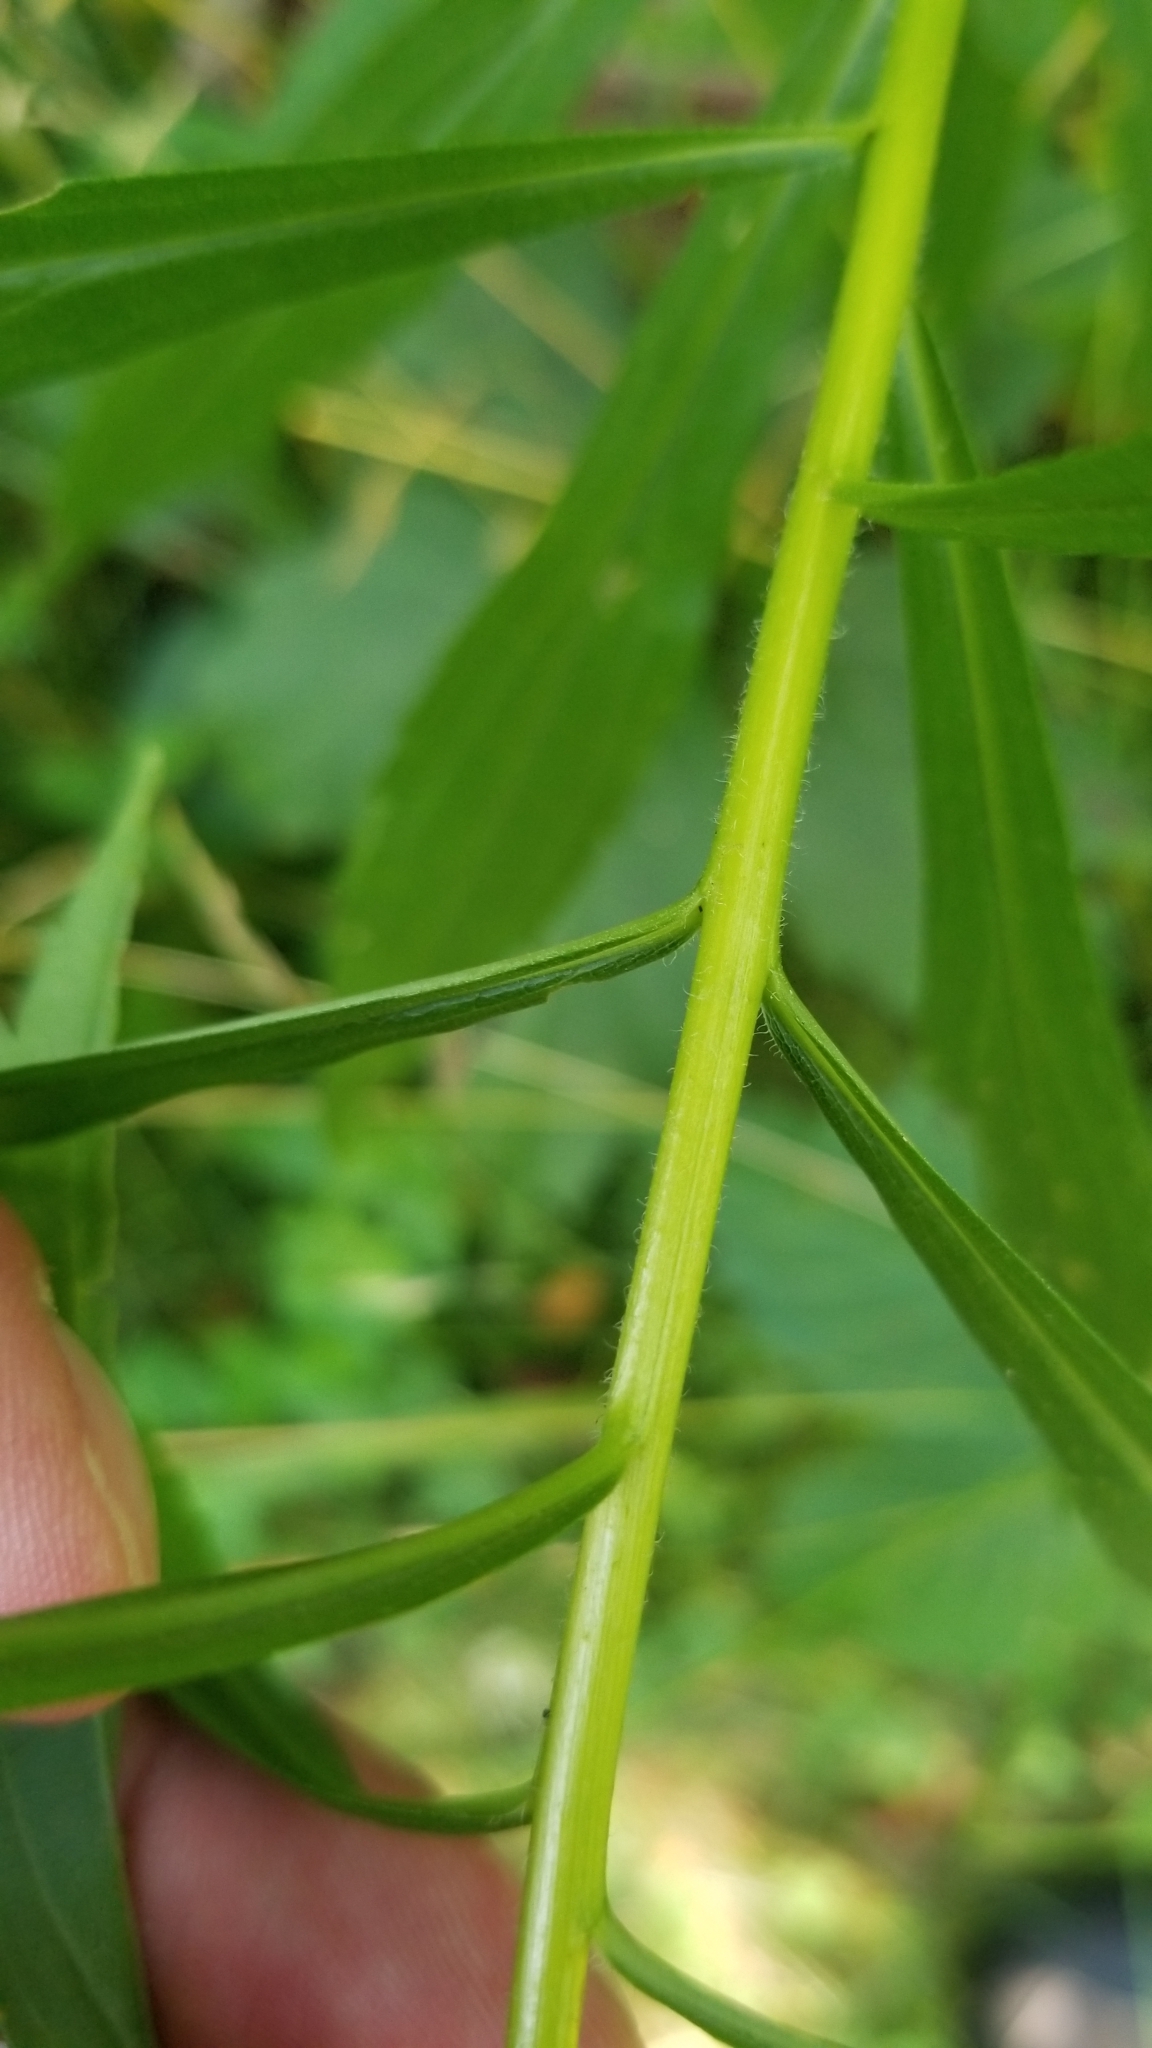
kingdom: Plantae
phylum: Tracheophyta
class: Magnoliopsida
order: Asterales
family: Asteraceae
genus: Solidago
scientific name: Solidago canadensis
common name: Canada goldenrod
